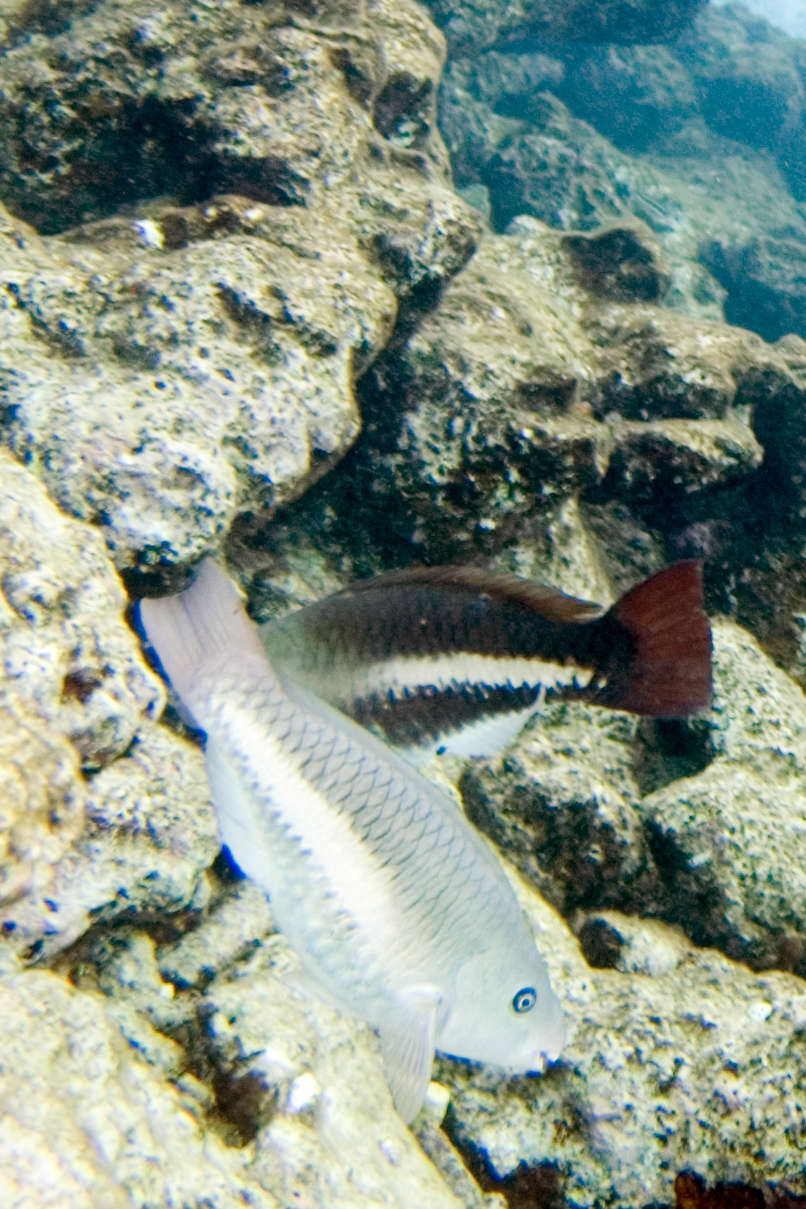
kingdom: Animalia
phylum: Chordata
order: Perciformes
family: Scaridae
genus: Scarus
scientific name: Scarus vetula
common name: Queen parrotfish
